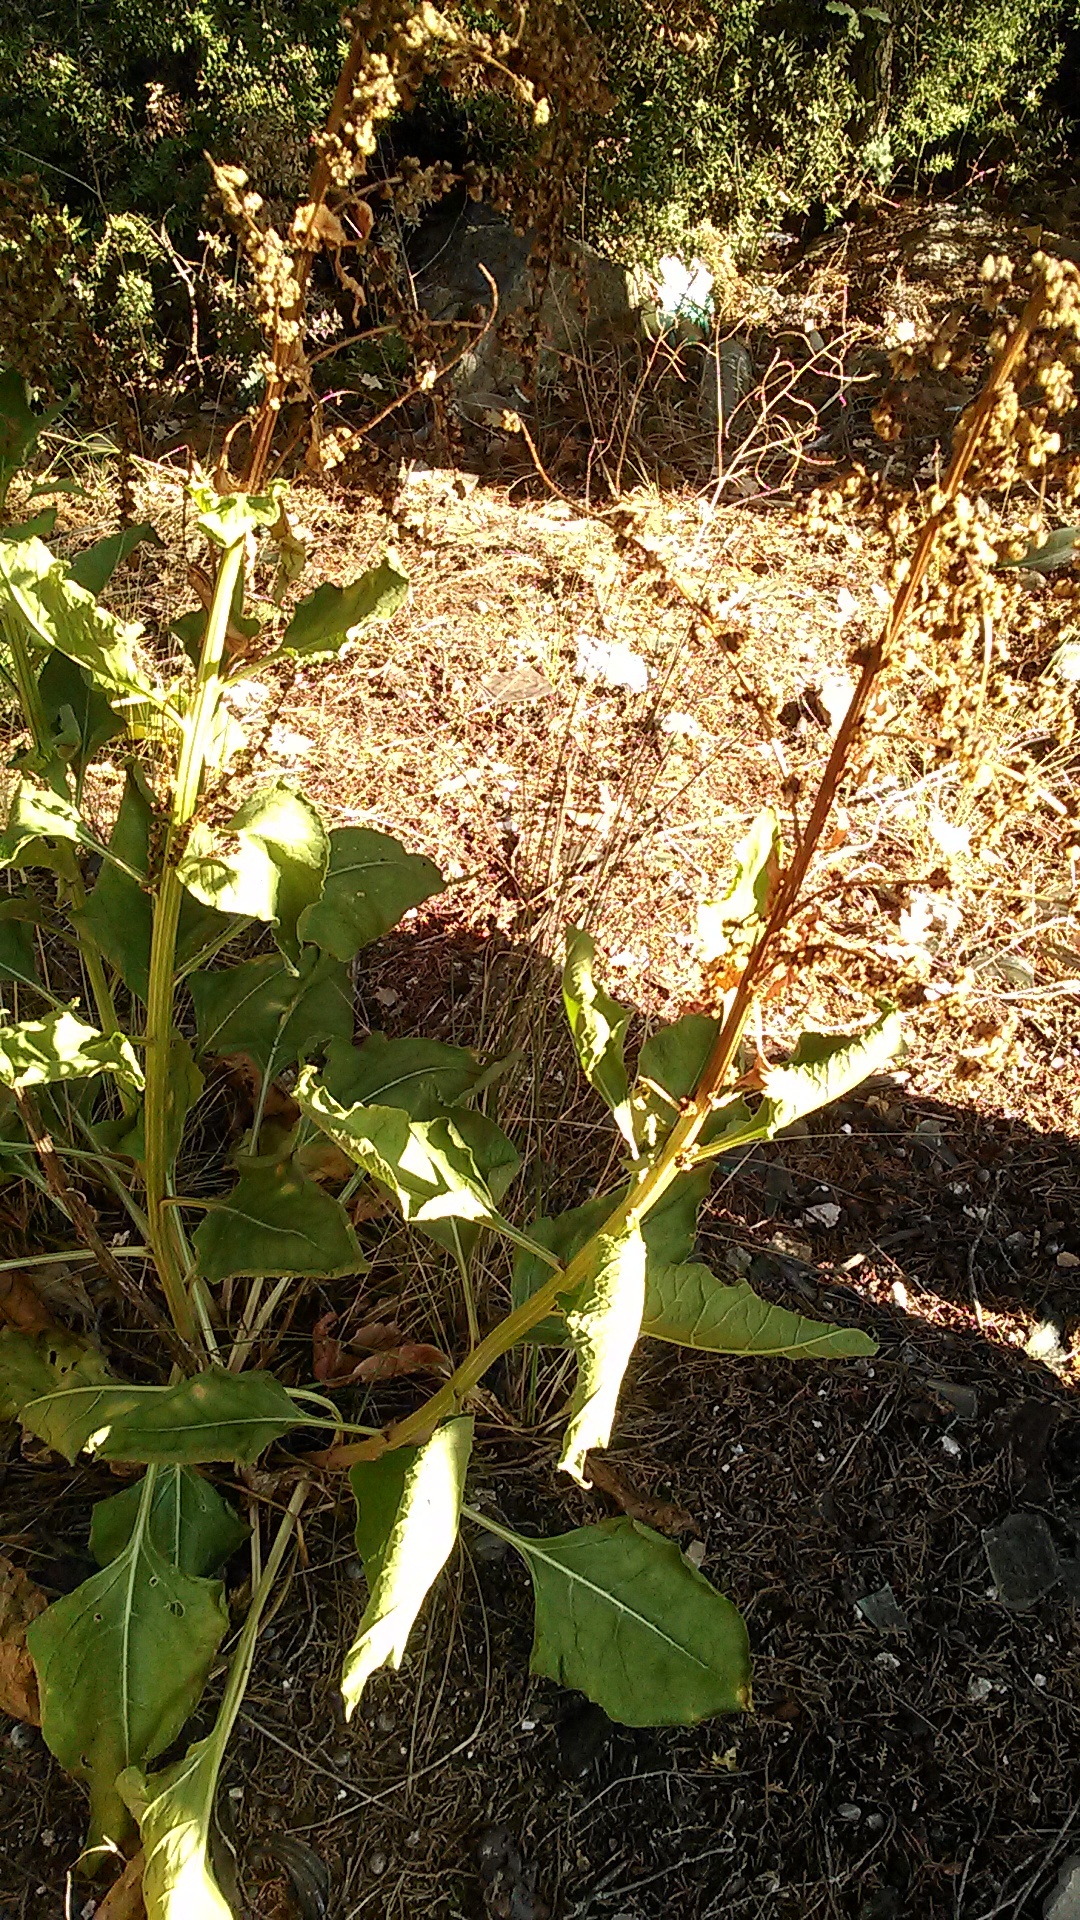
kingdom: Plantae
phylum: Tracheophyta
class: Magnoliopsida
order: Caryophyllales
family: Amaranthaceae
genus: Beta
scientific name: Beta trigyna
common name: Caucasian beet
